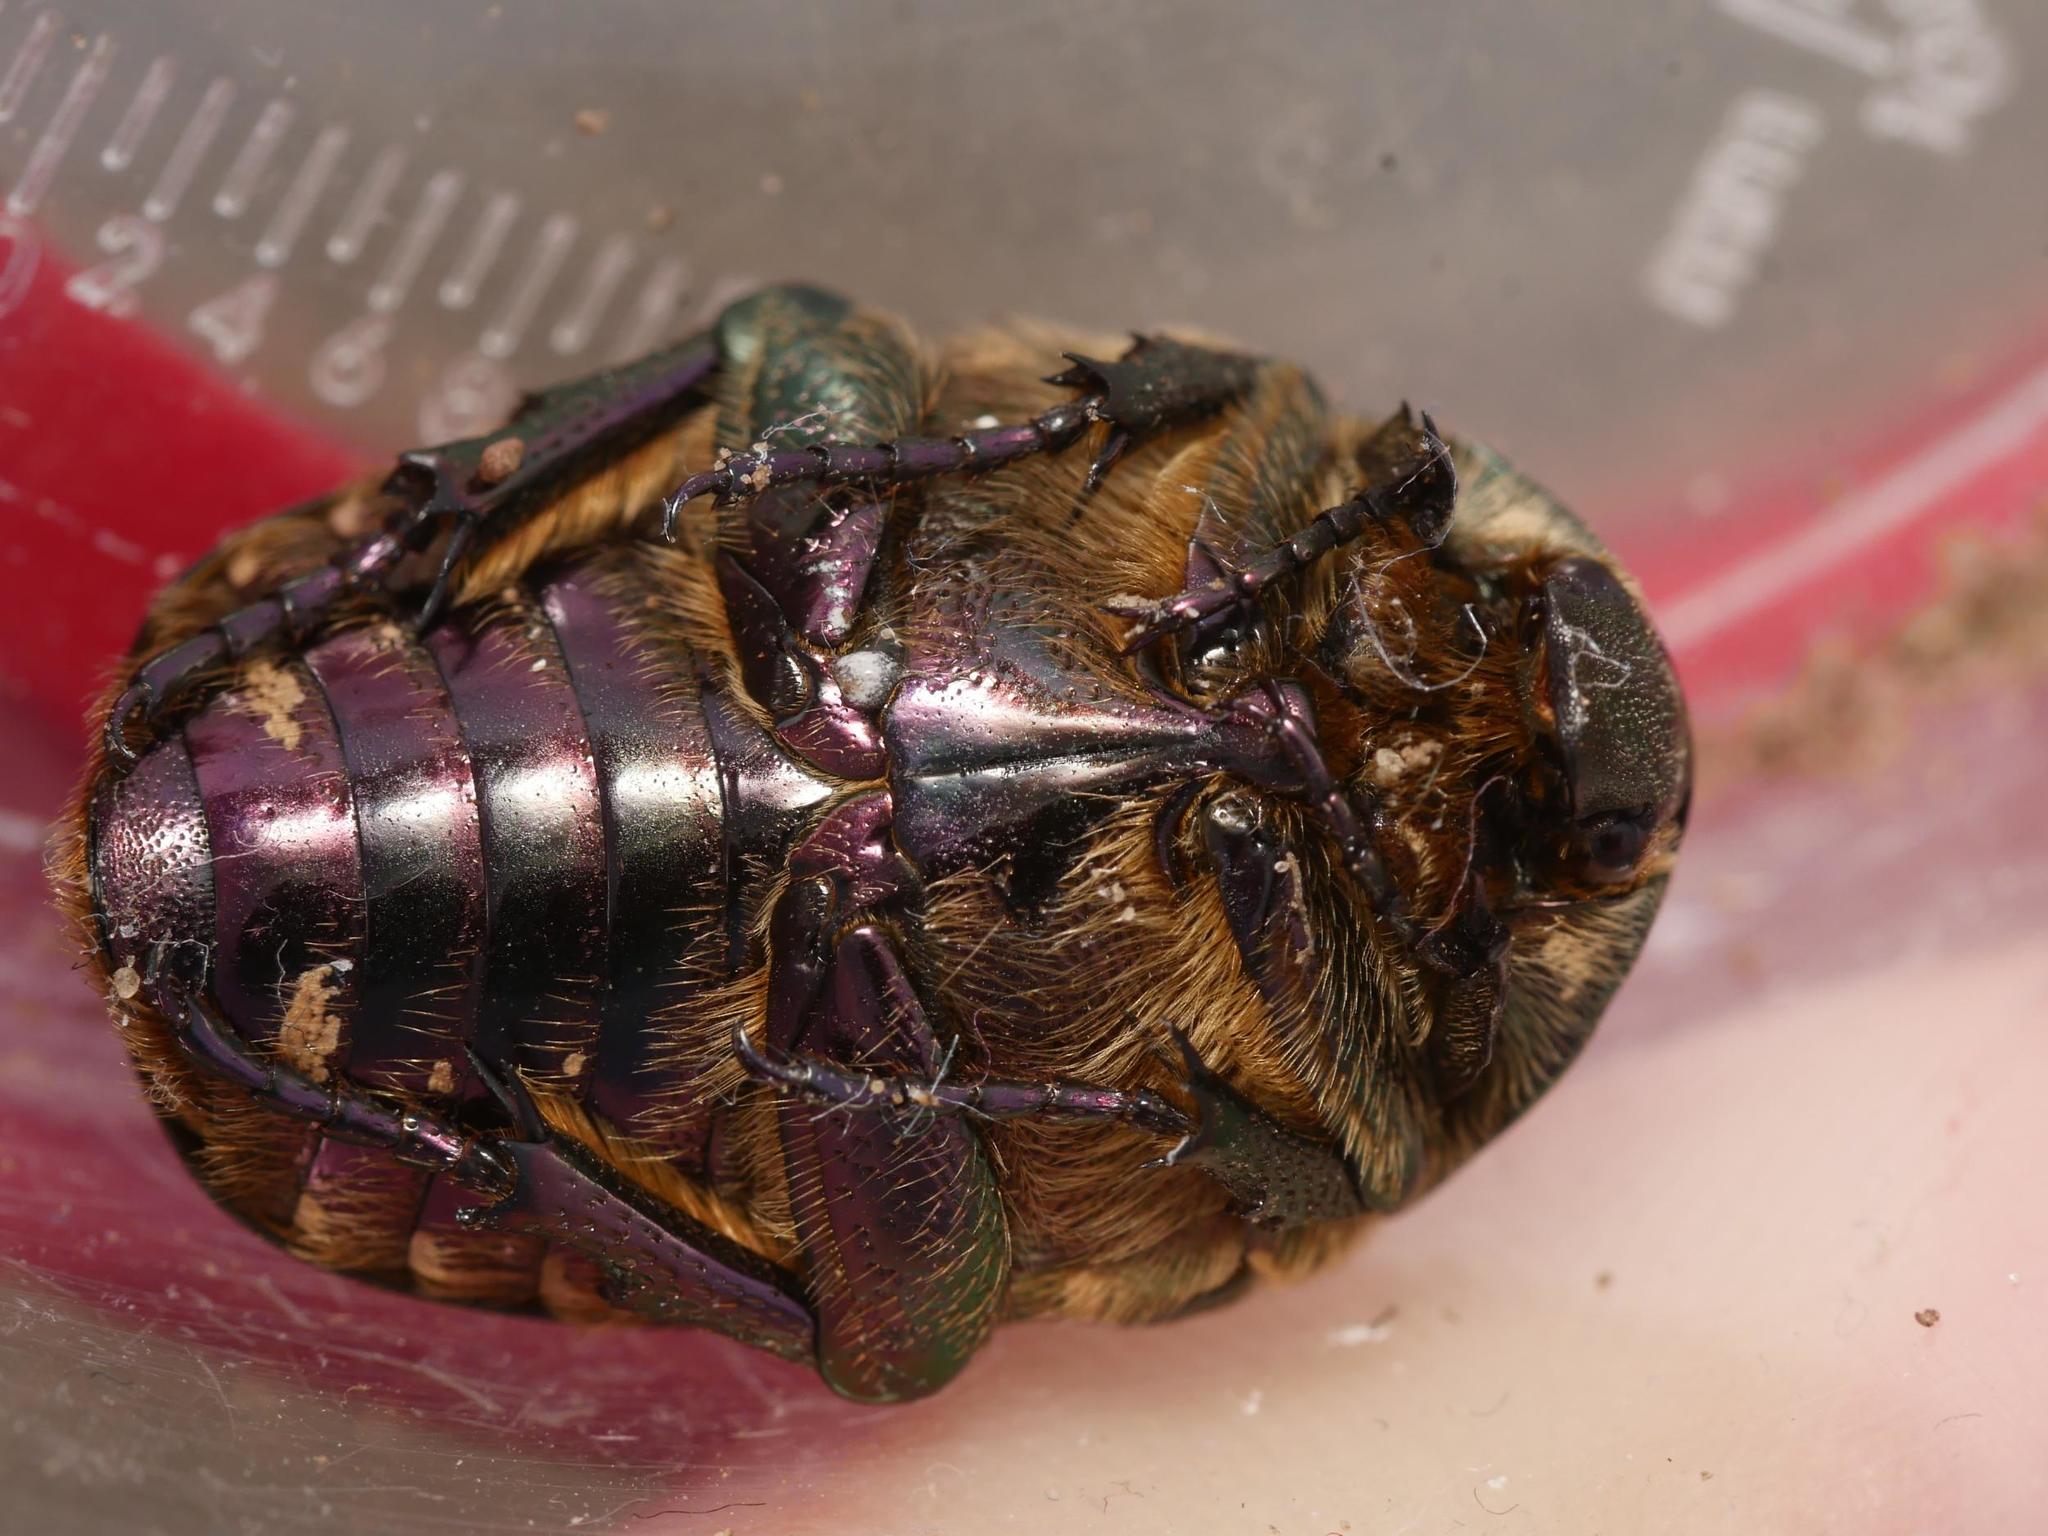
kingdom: Animalia
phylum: Arthropoda
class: Insecta
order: Coleoptera
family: Scarabaeidae
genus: Protaetia
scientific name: Protaetia cuprea
